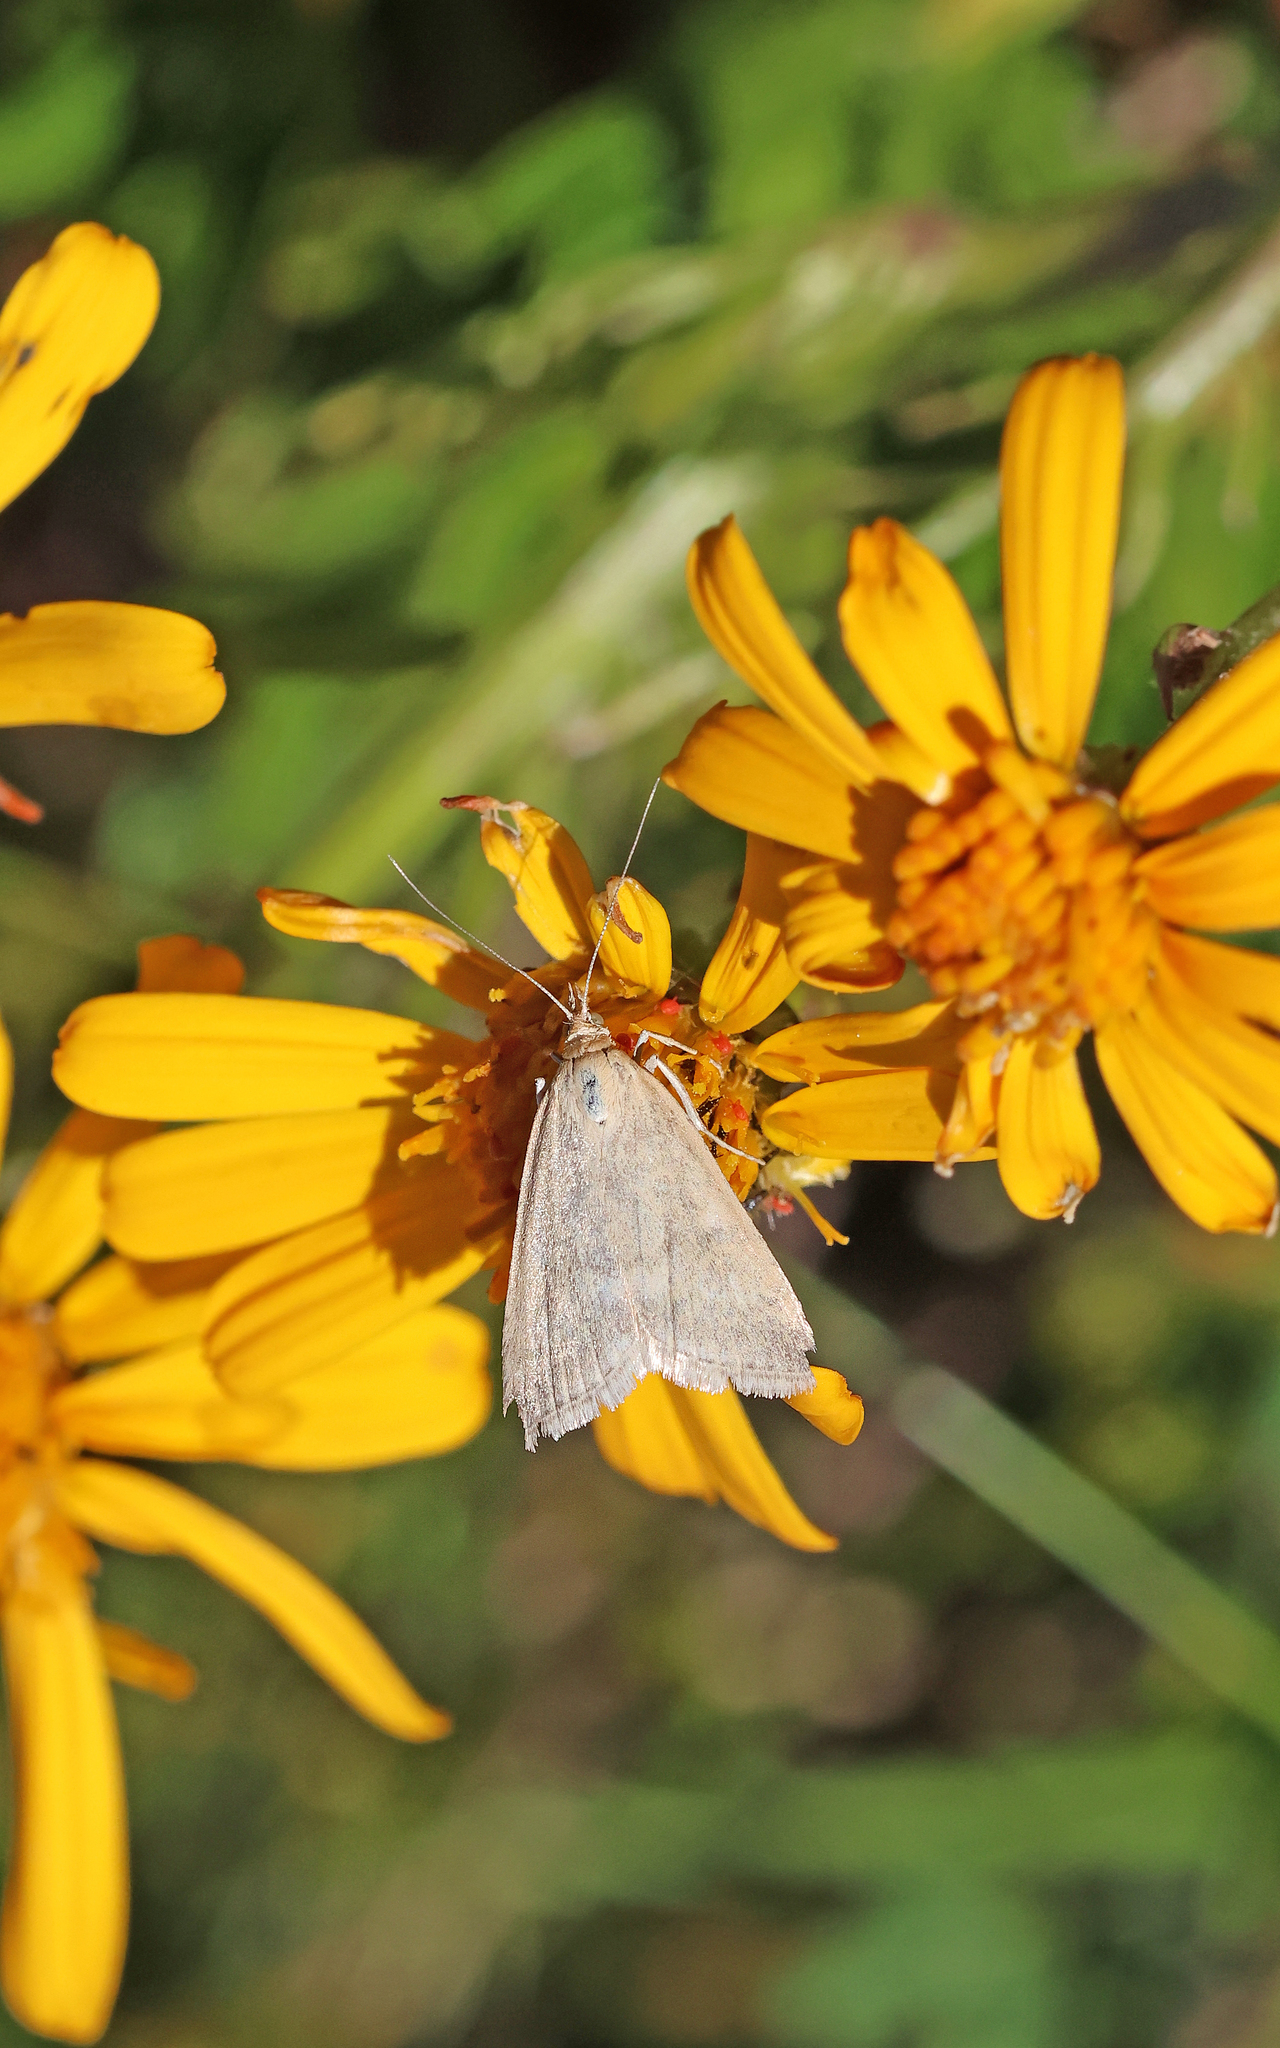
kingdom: Animalia
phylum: Arthropoda
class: Insecta
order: Lepidoptera
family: Crambidae
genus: Udea
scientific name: Udea nebulalis
